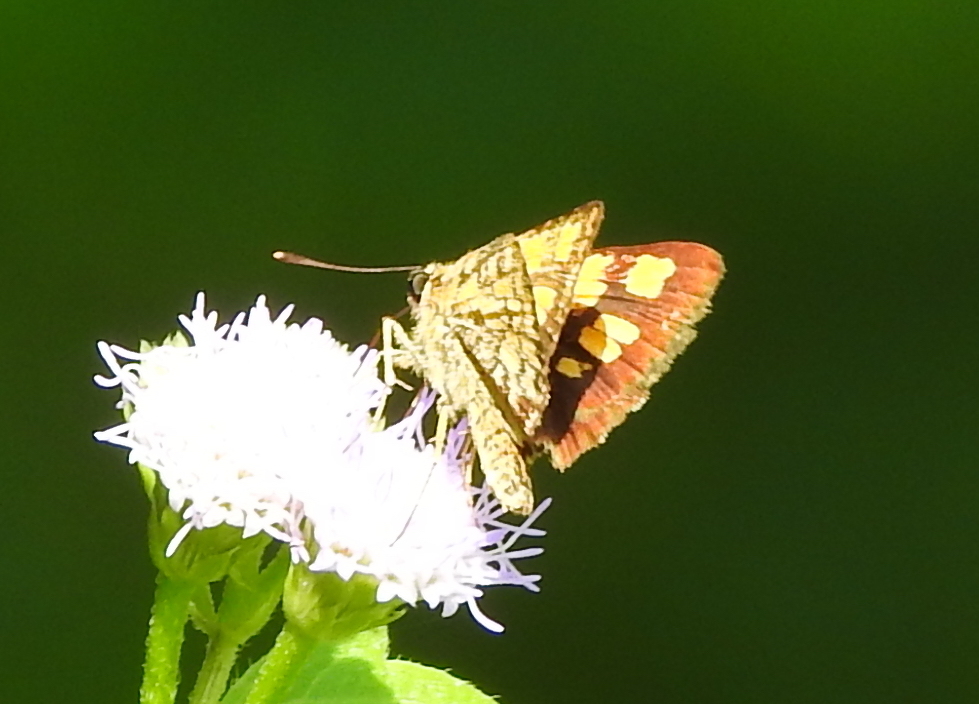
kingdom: Animalia
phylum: Arthropoda
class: Insecta
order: Lepidoptera
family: Hesperiidae
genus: Ampittia
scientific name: Ampittia dioscorides
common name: Common bush hopper
